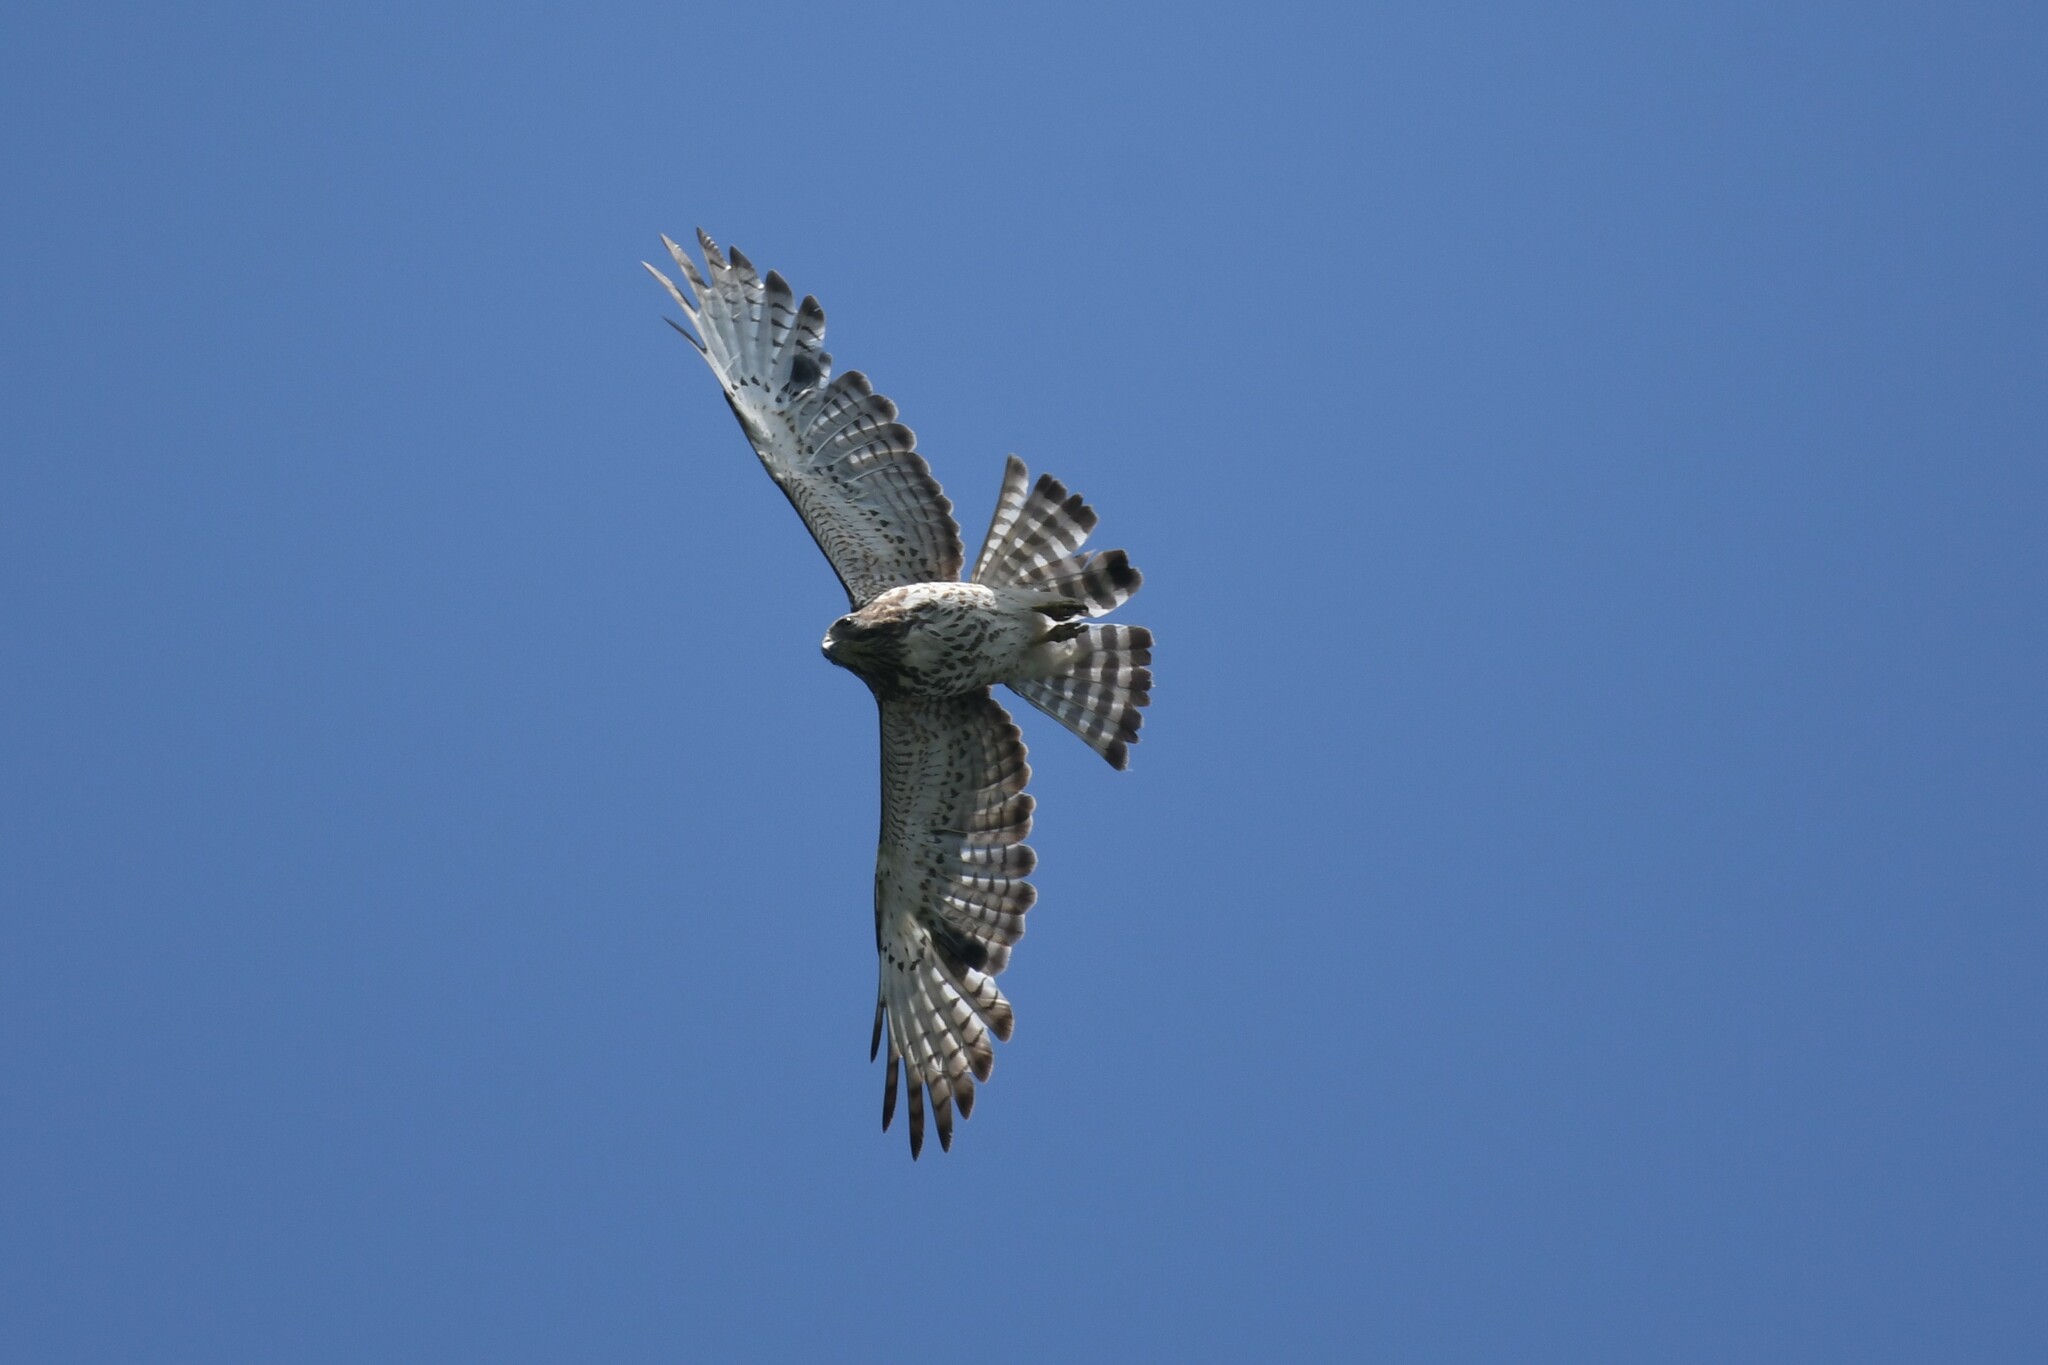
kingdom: Animalia
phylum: Chordata
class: Aves
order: Accipitriformes
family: Accipitridae
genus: Buteo
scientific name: Buteo platypterus
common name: Broad-winged hawk
